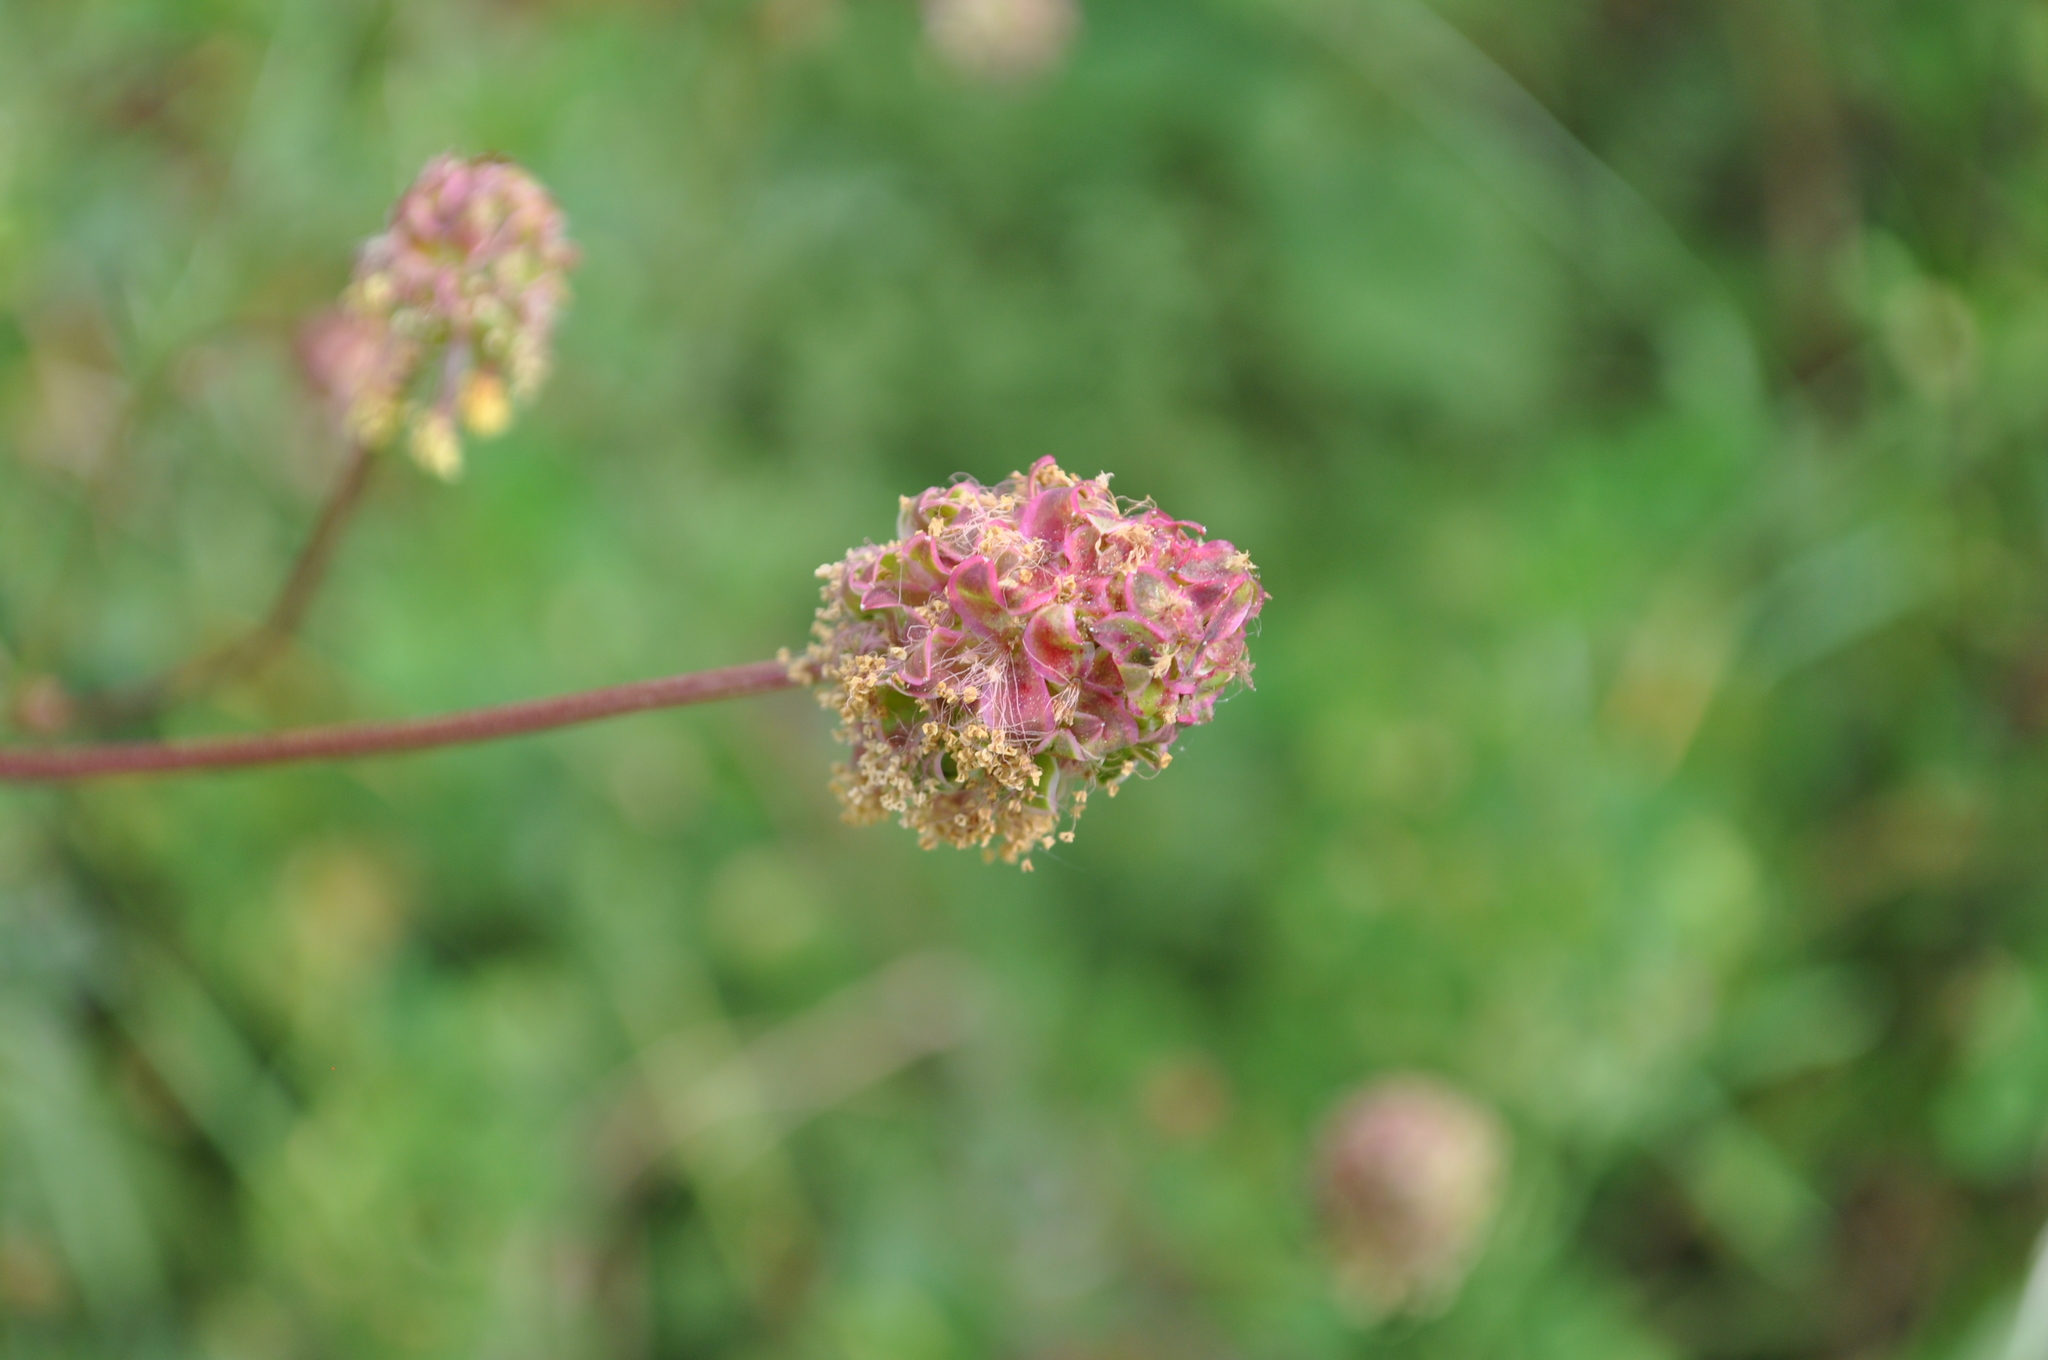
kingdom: Plantae
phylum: Tracheophyta
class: Magnoliopsida
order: Rosales
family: Rosaceae
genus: Poterium
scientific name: Poterium sanguisorba
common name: Salad burnet
